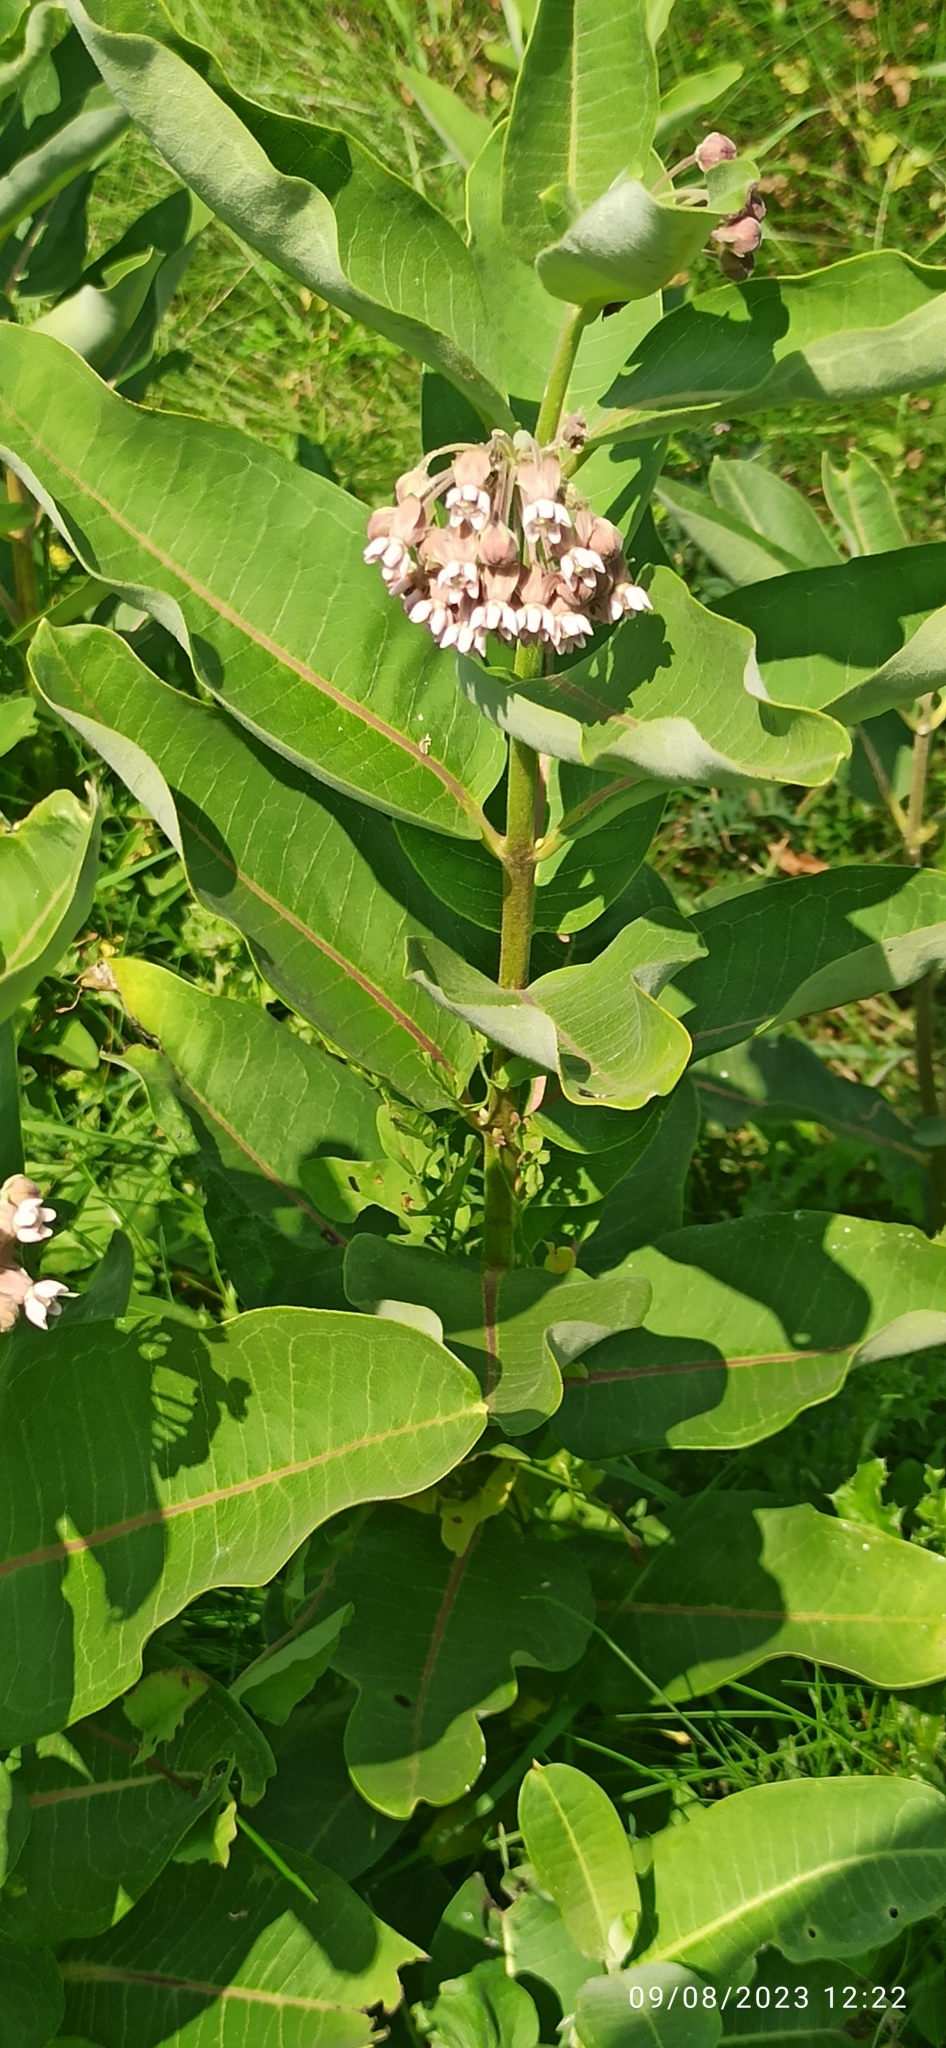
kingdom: Plantae
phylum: Tracheophyta
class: Magnoliopsida
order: Gentianales
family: Apocynaceae
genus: Asclepias
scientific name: Asclepias syriaca
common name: Common milkweed
